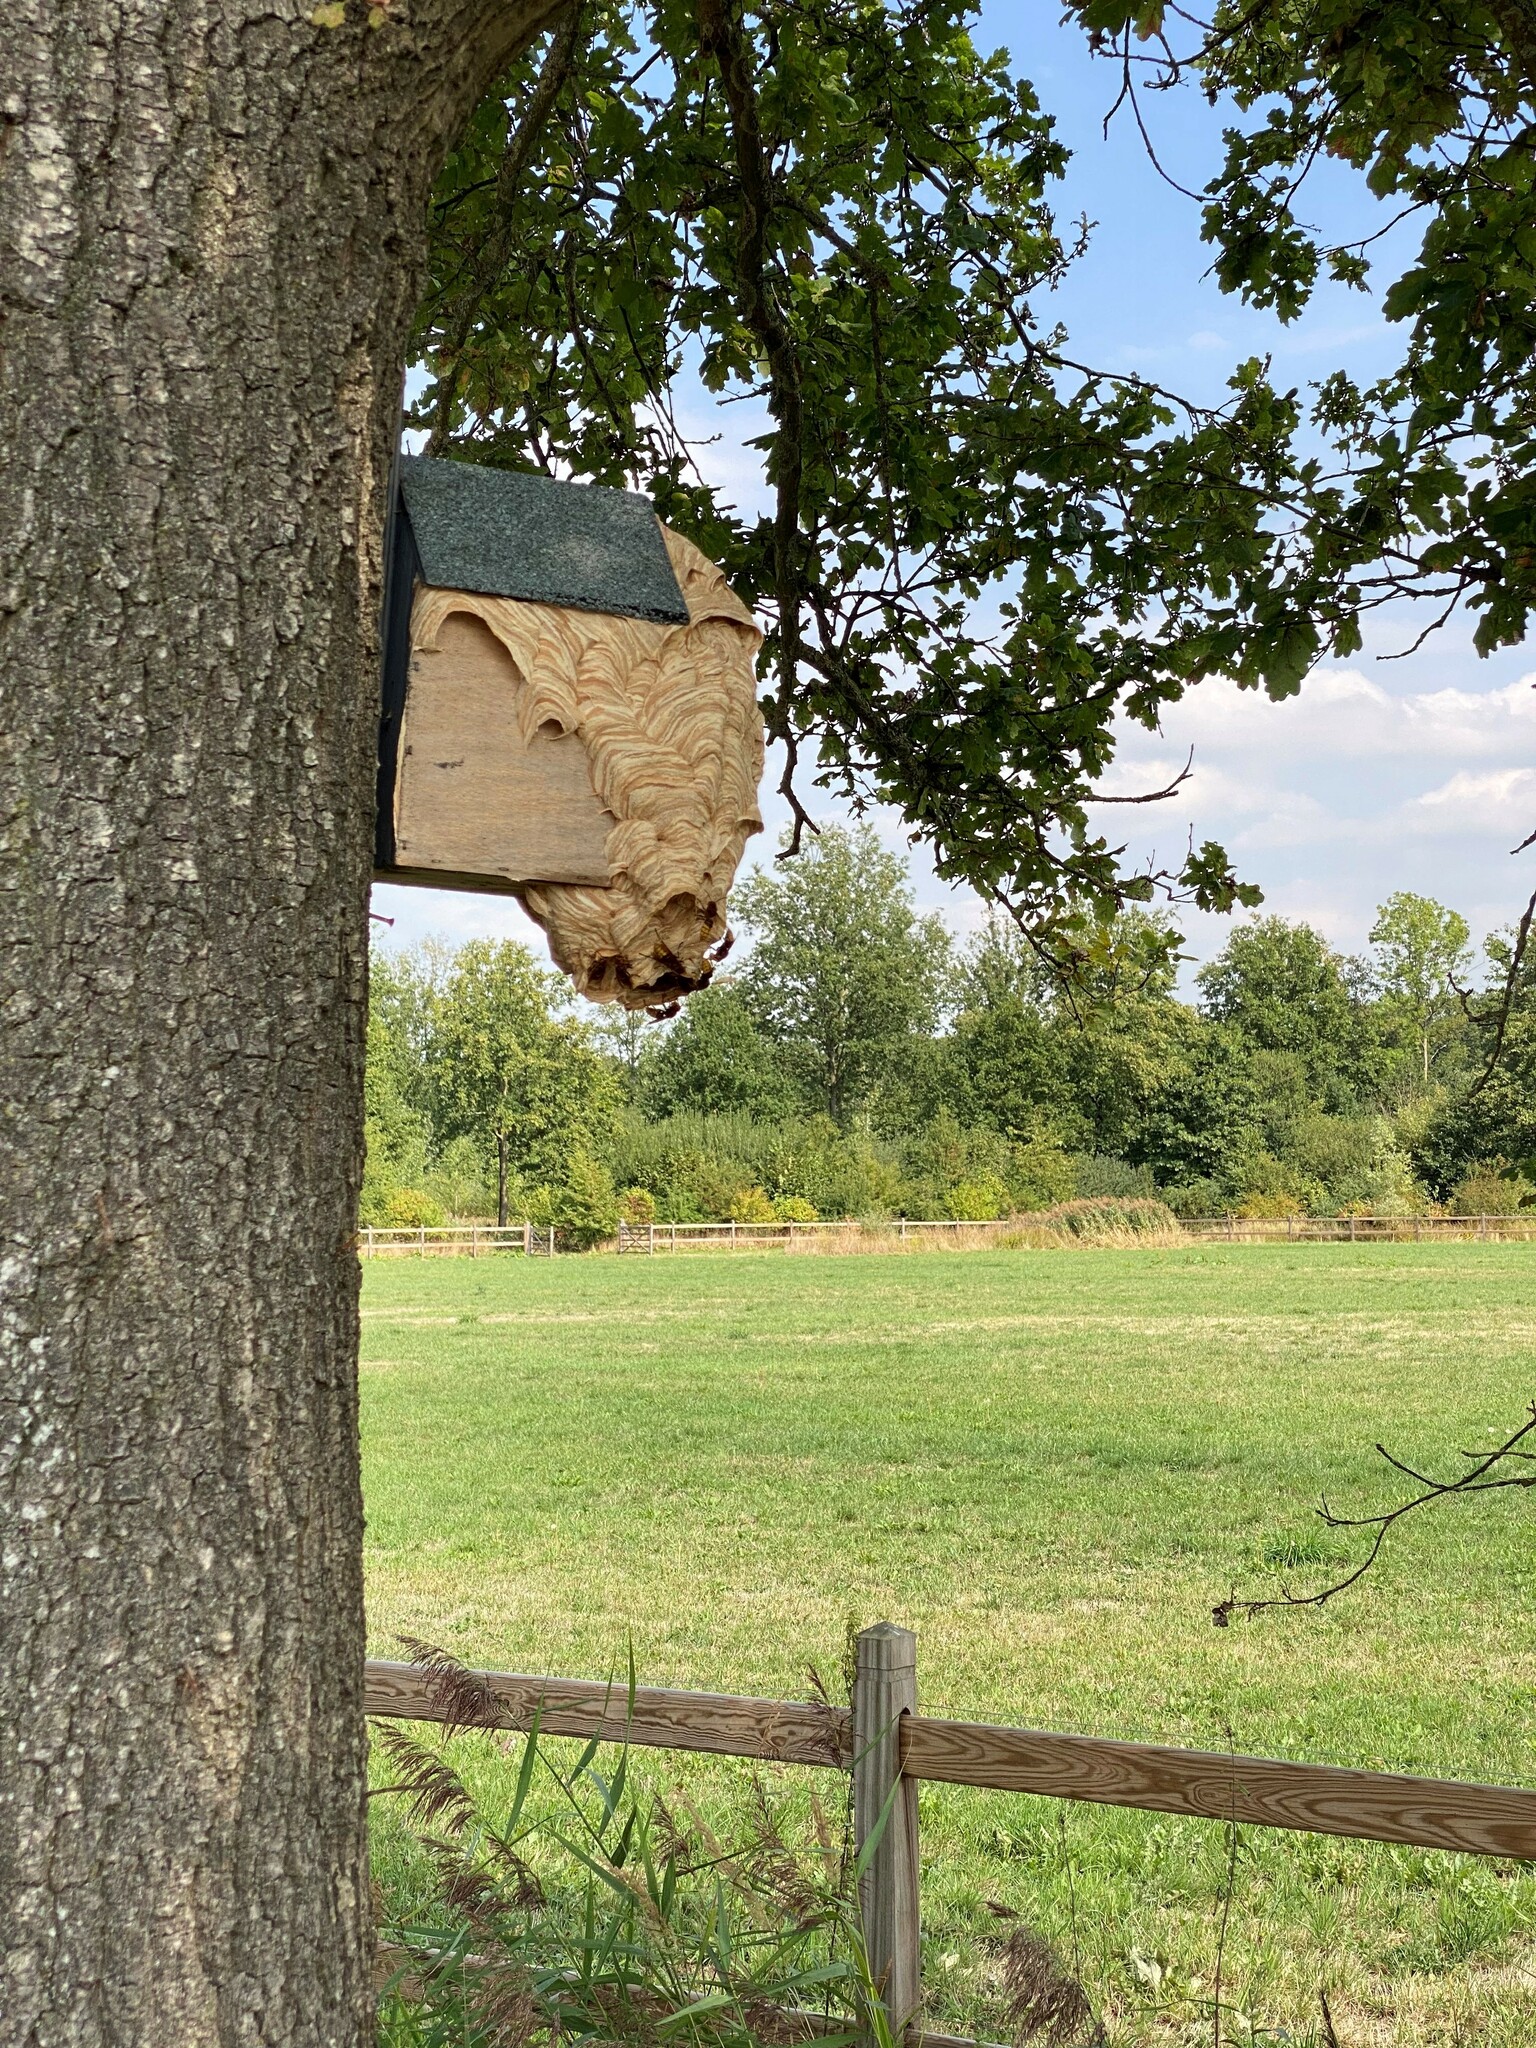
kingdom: Animalia
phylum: Arthropoda
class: Insecta
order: Hymenoptera
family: Vespidae
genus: Vespa
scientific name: Vespa crabro
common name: Hornet
